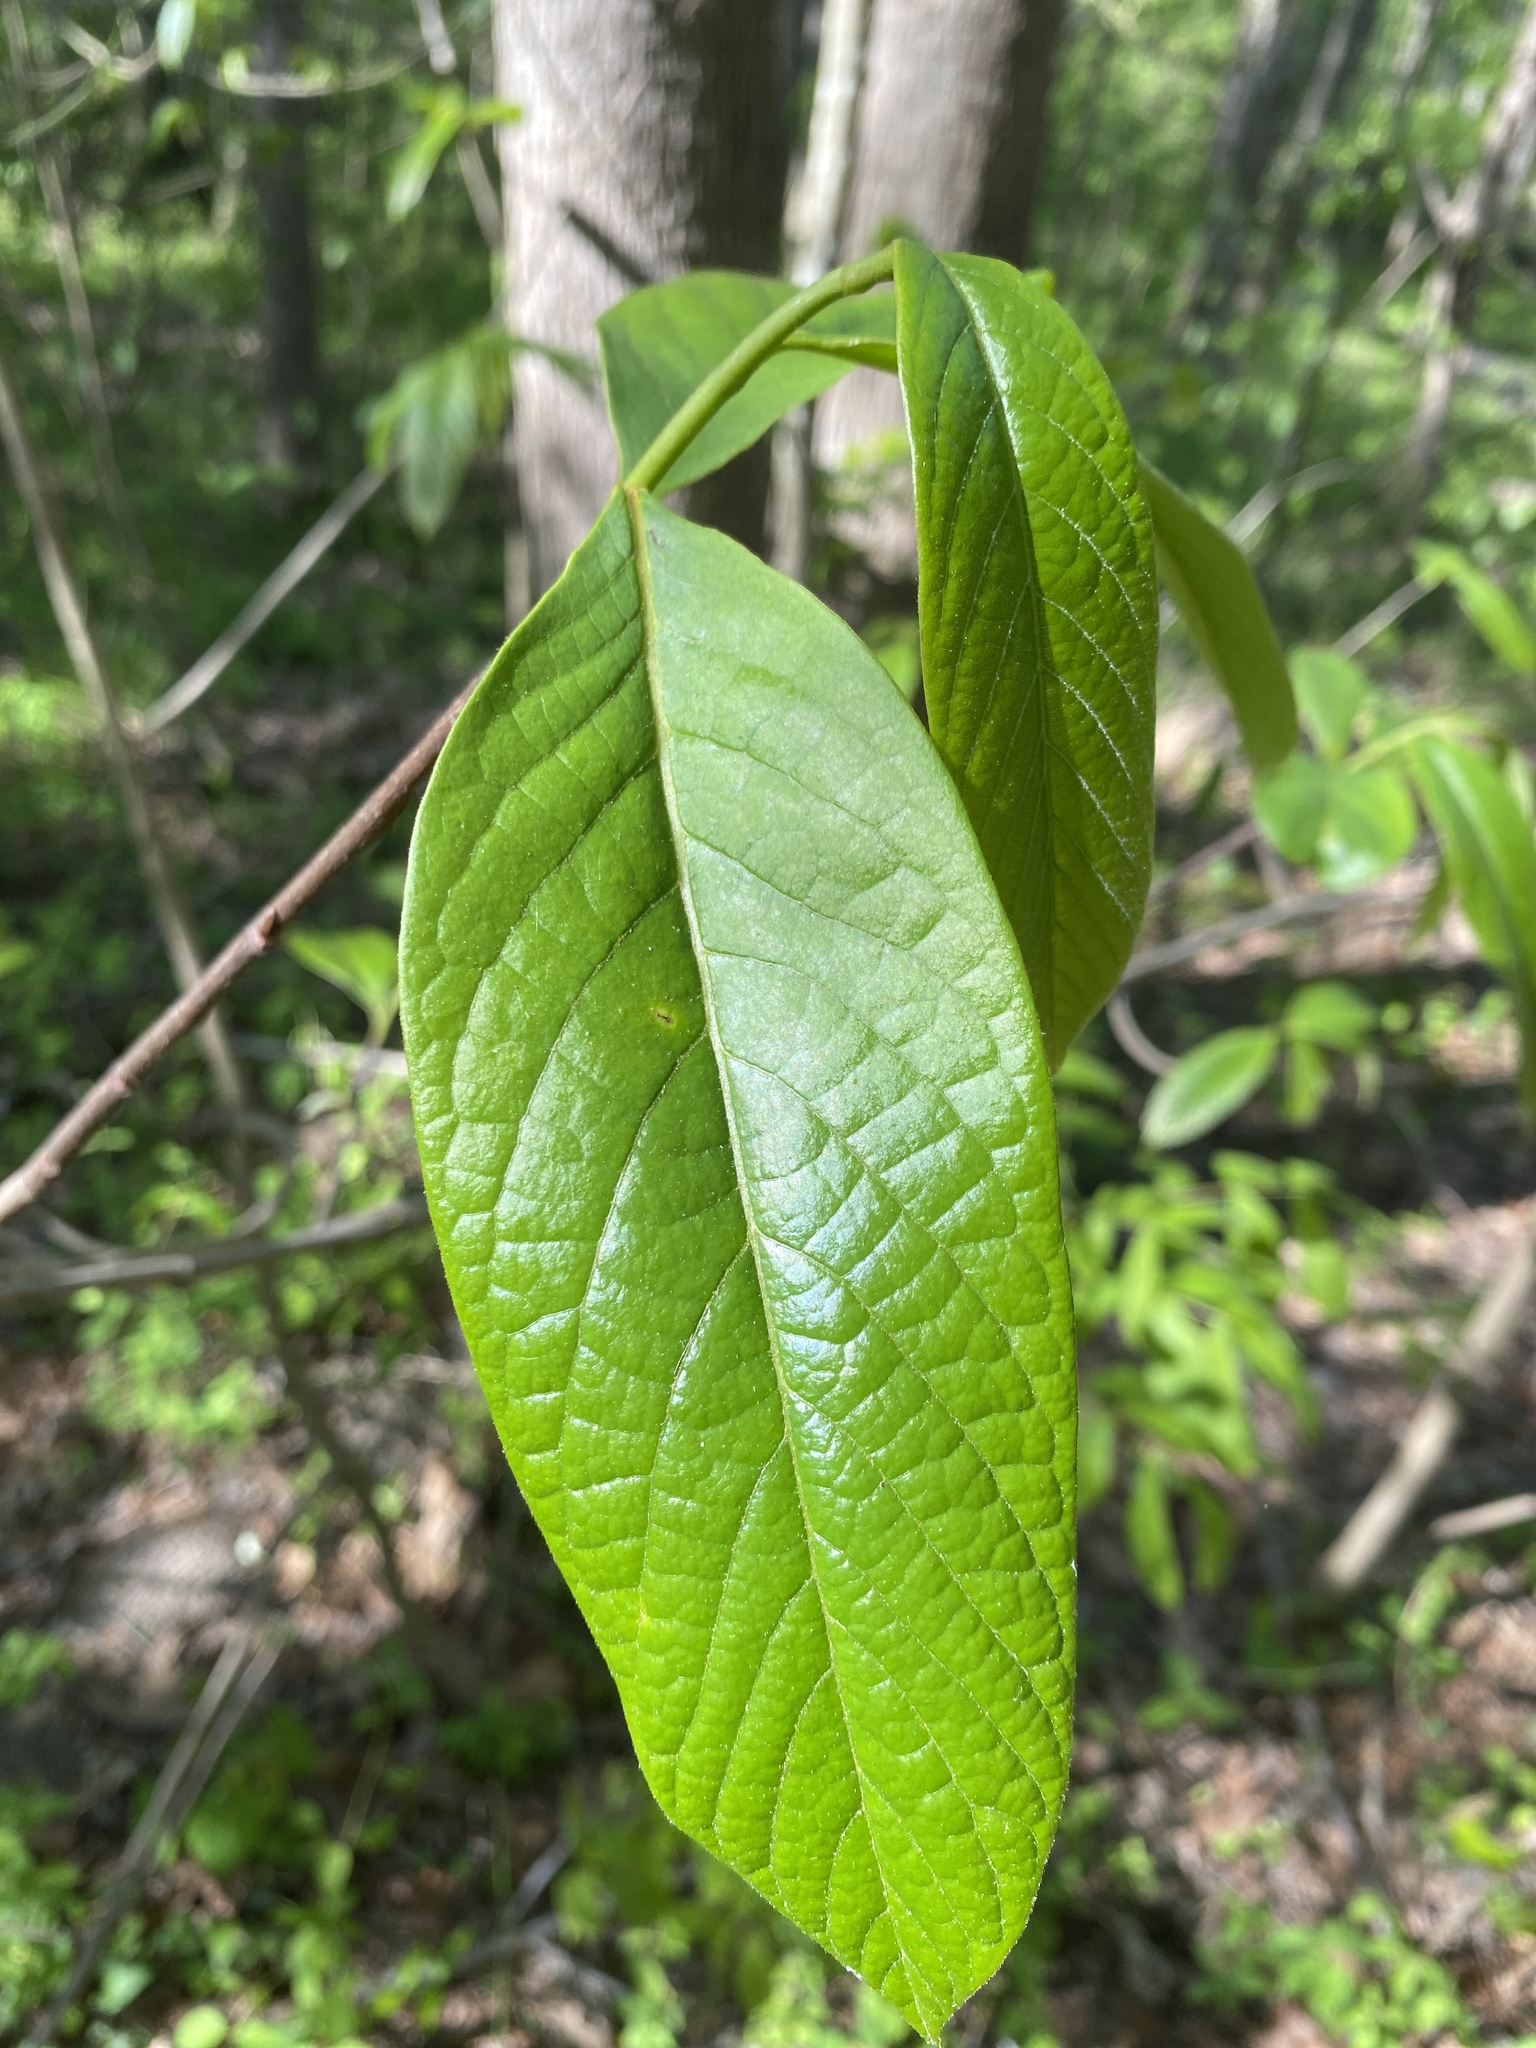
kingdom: Plantae
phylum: Tracheophyta
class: Magnoliopsida
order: Magnoliales
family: Annonaceae
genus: Asimina
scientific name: Asimina triloba
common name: Dog-banana
